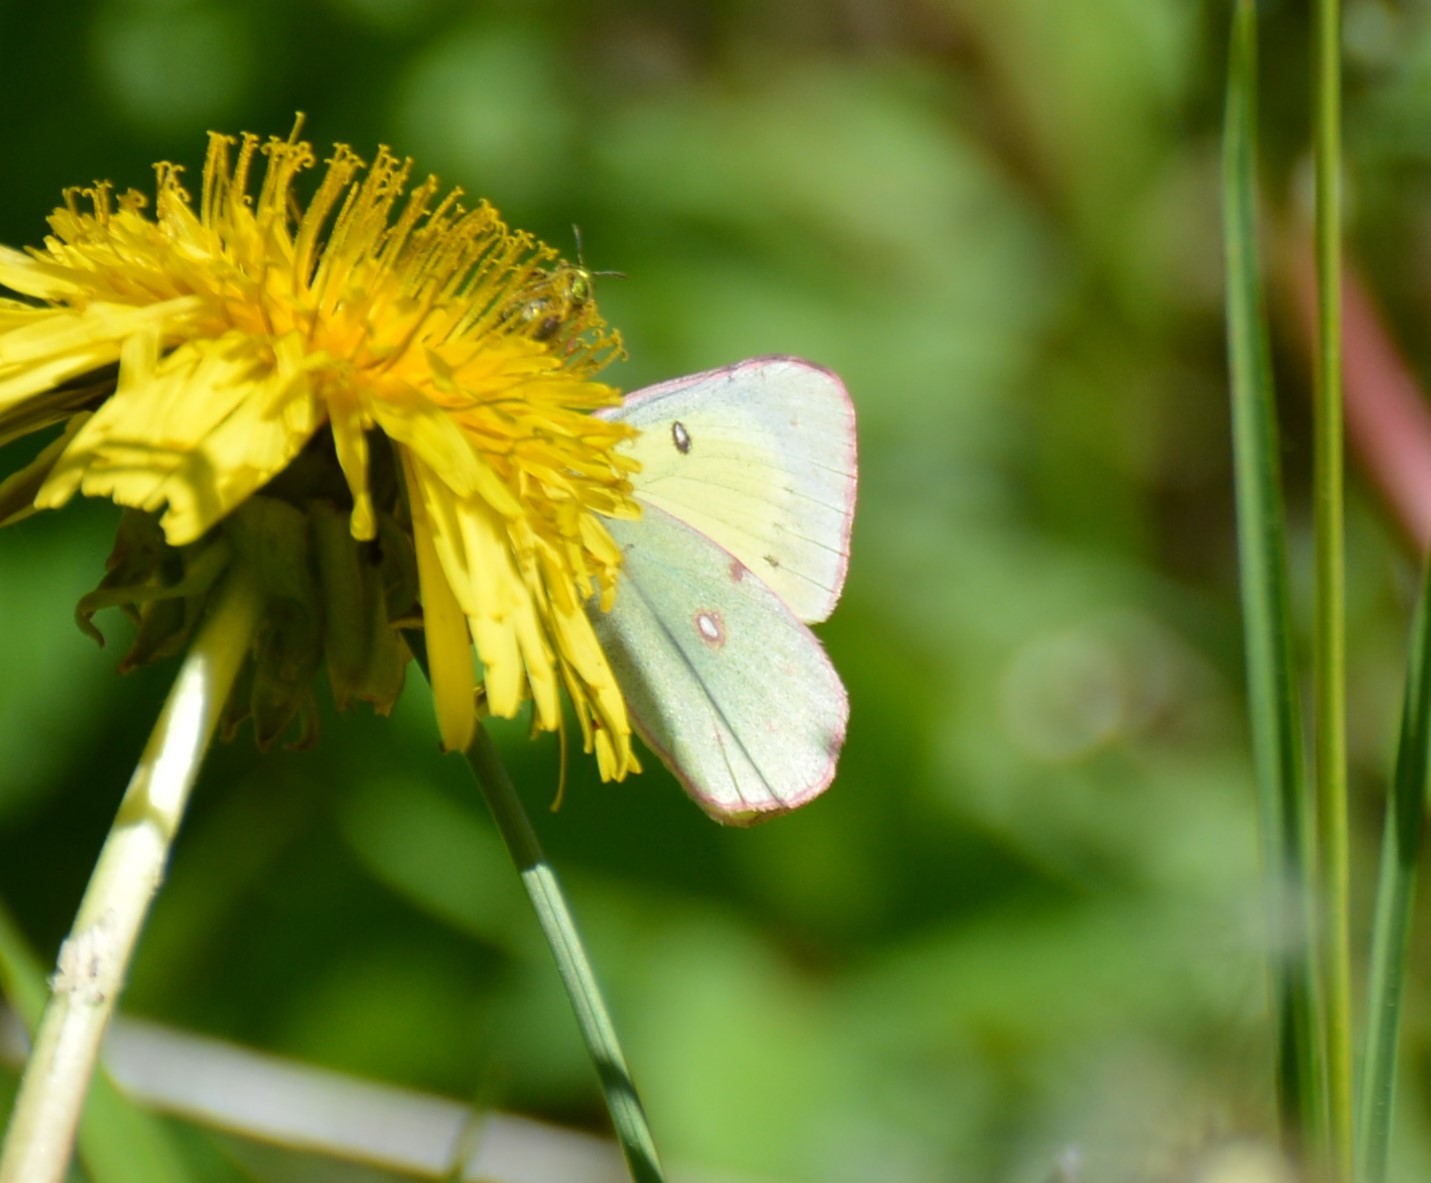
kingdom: Animalia
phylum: Arthropoda
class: Insecta
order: Lepidoptera
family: Pieridae
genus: Colias
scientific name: Colias philodice
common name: Clouded sulphur
